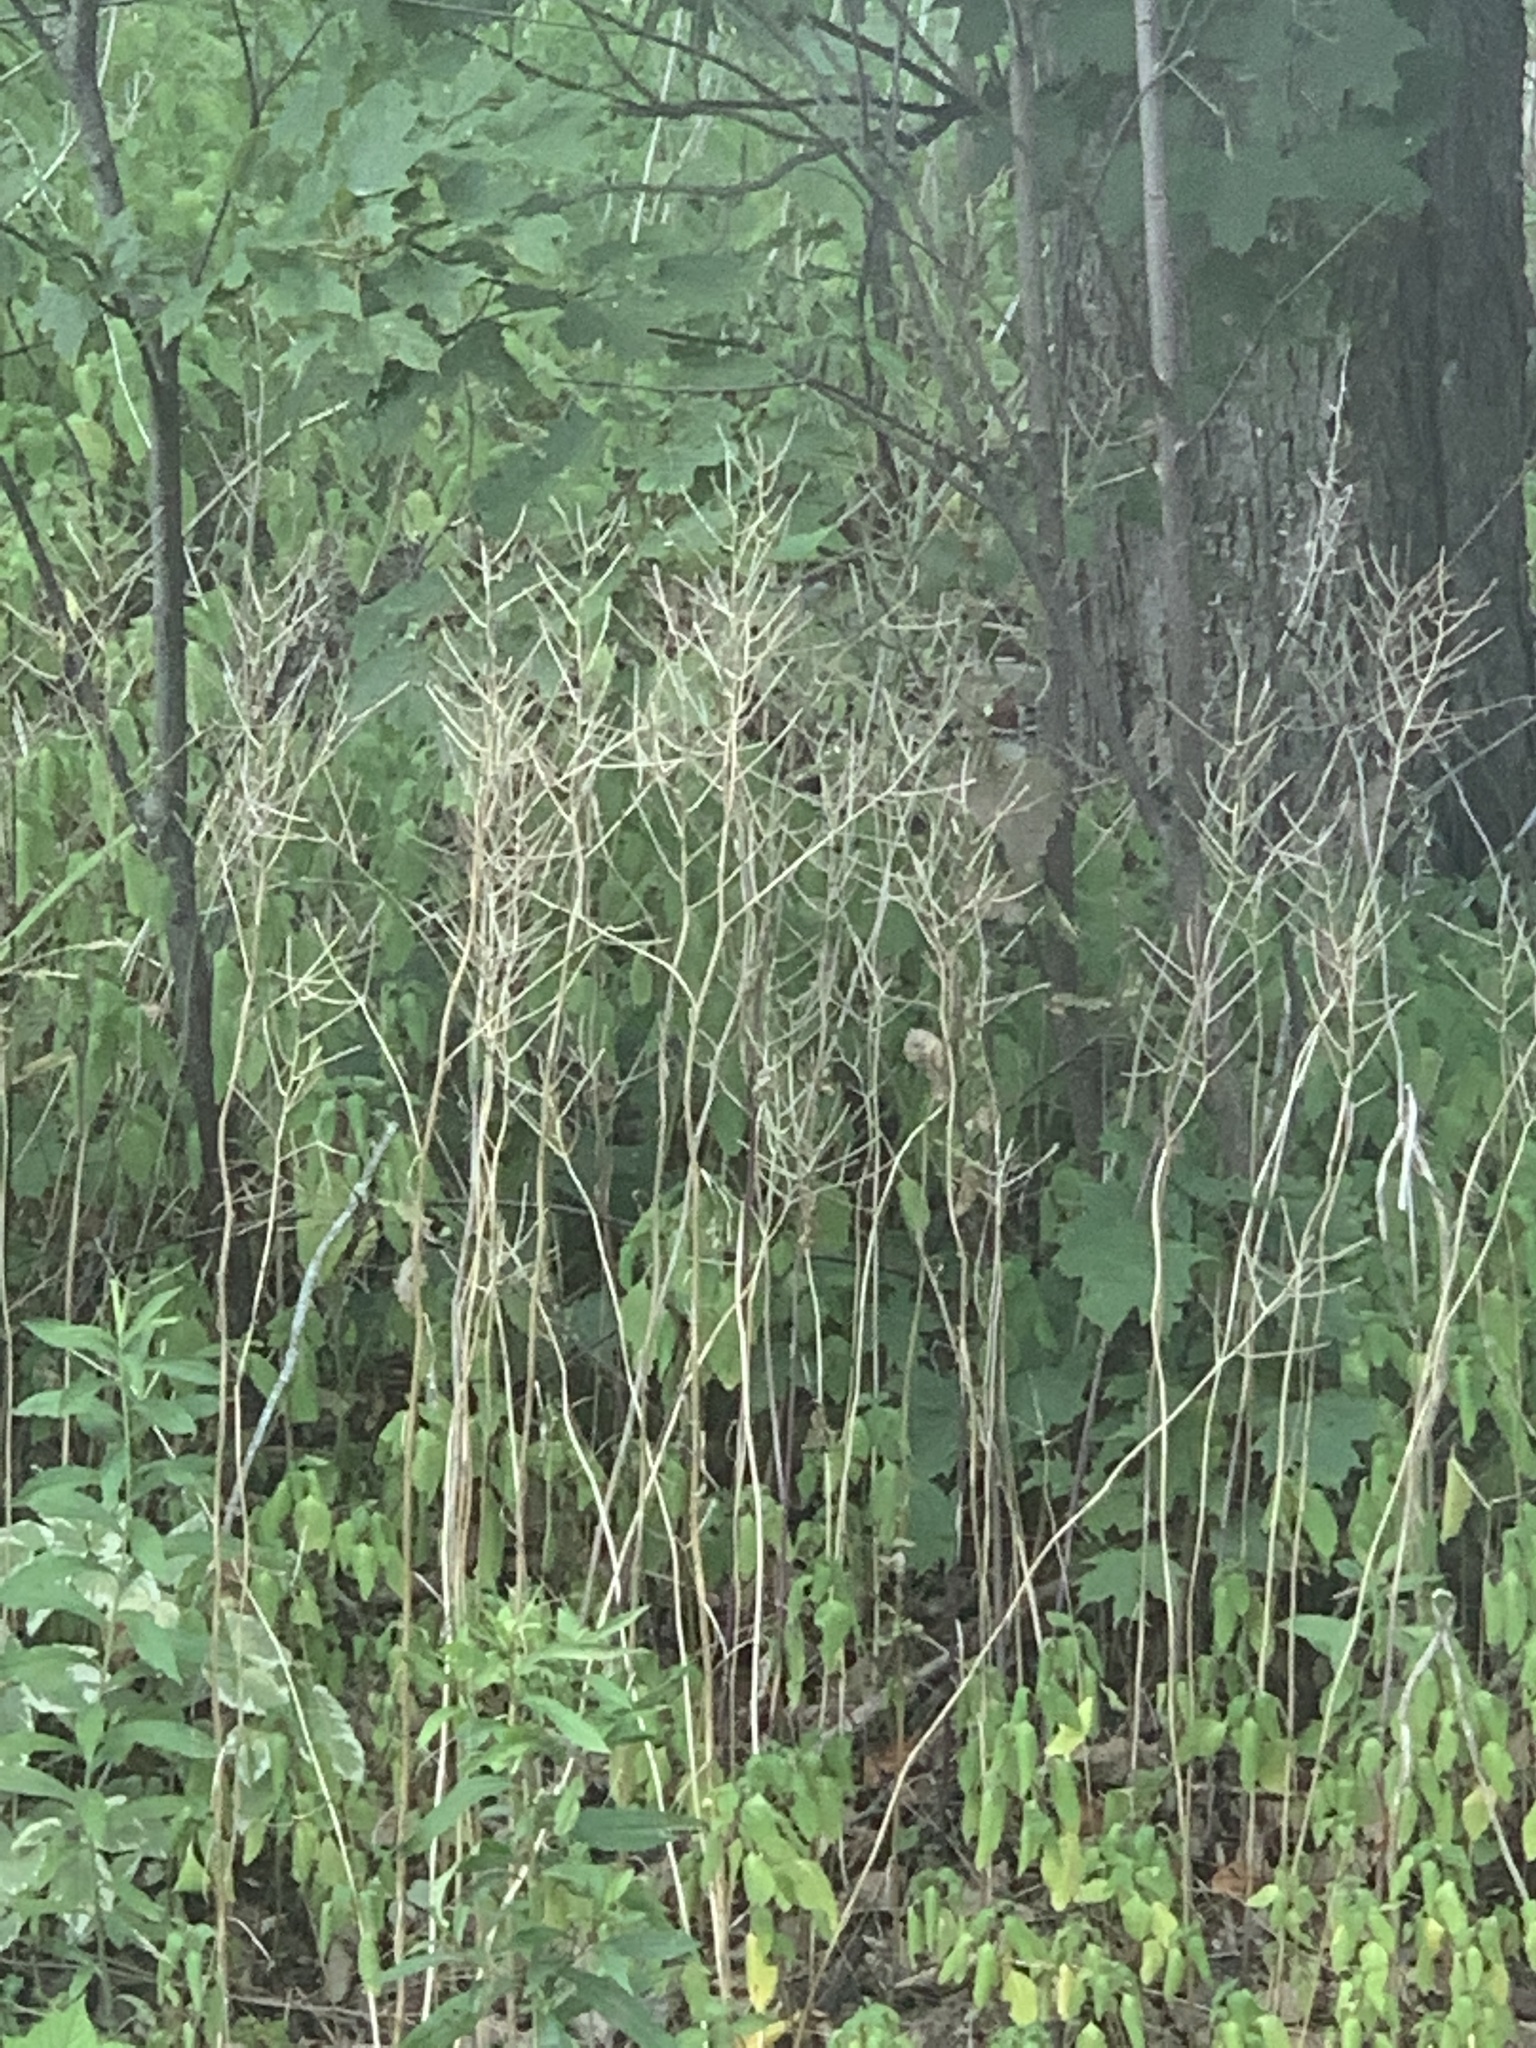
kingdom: Plantae
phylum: Tracheophyta
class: Magnoliopsida
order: Brassicales
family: Brassicaceae
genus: Alliaria
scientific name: Alliaria petiolata
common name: Garlic mustard
